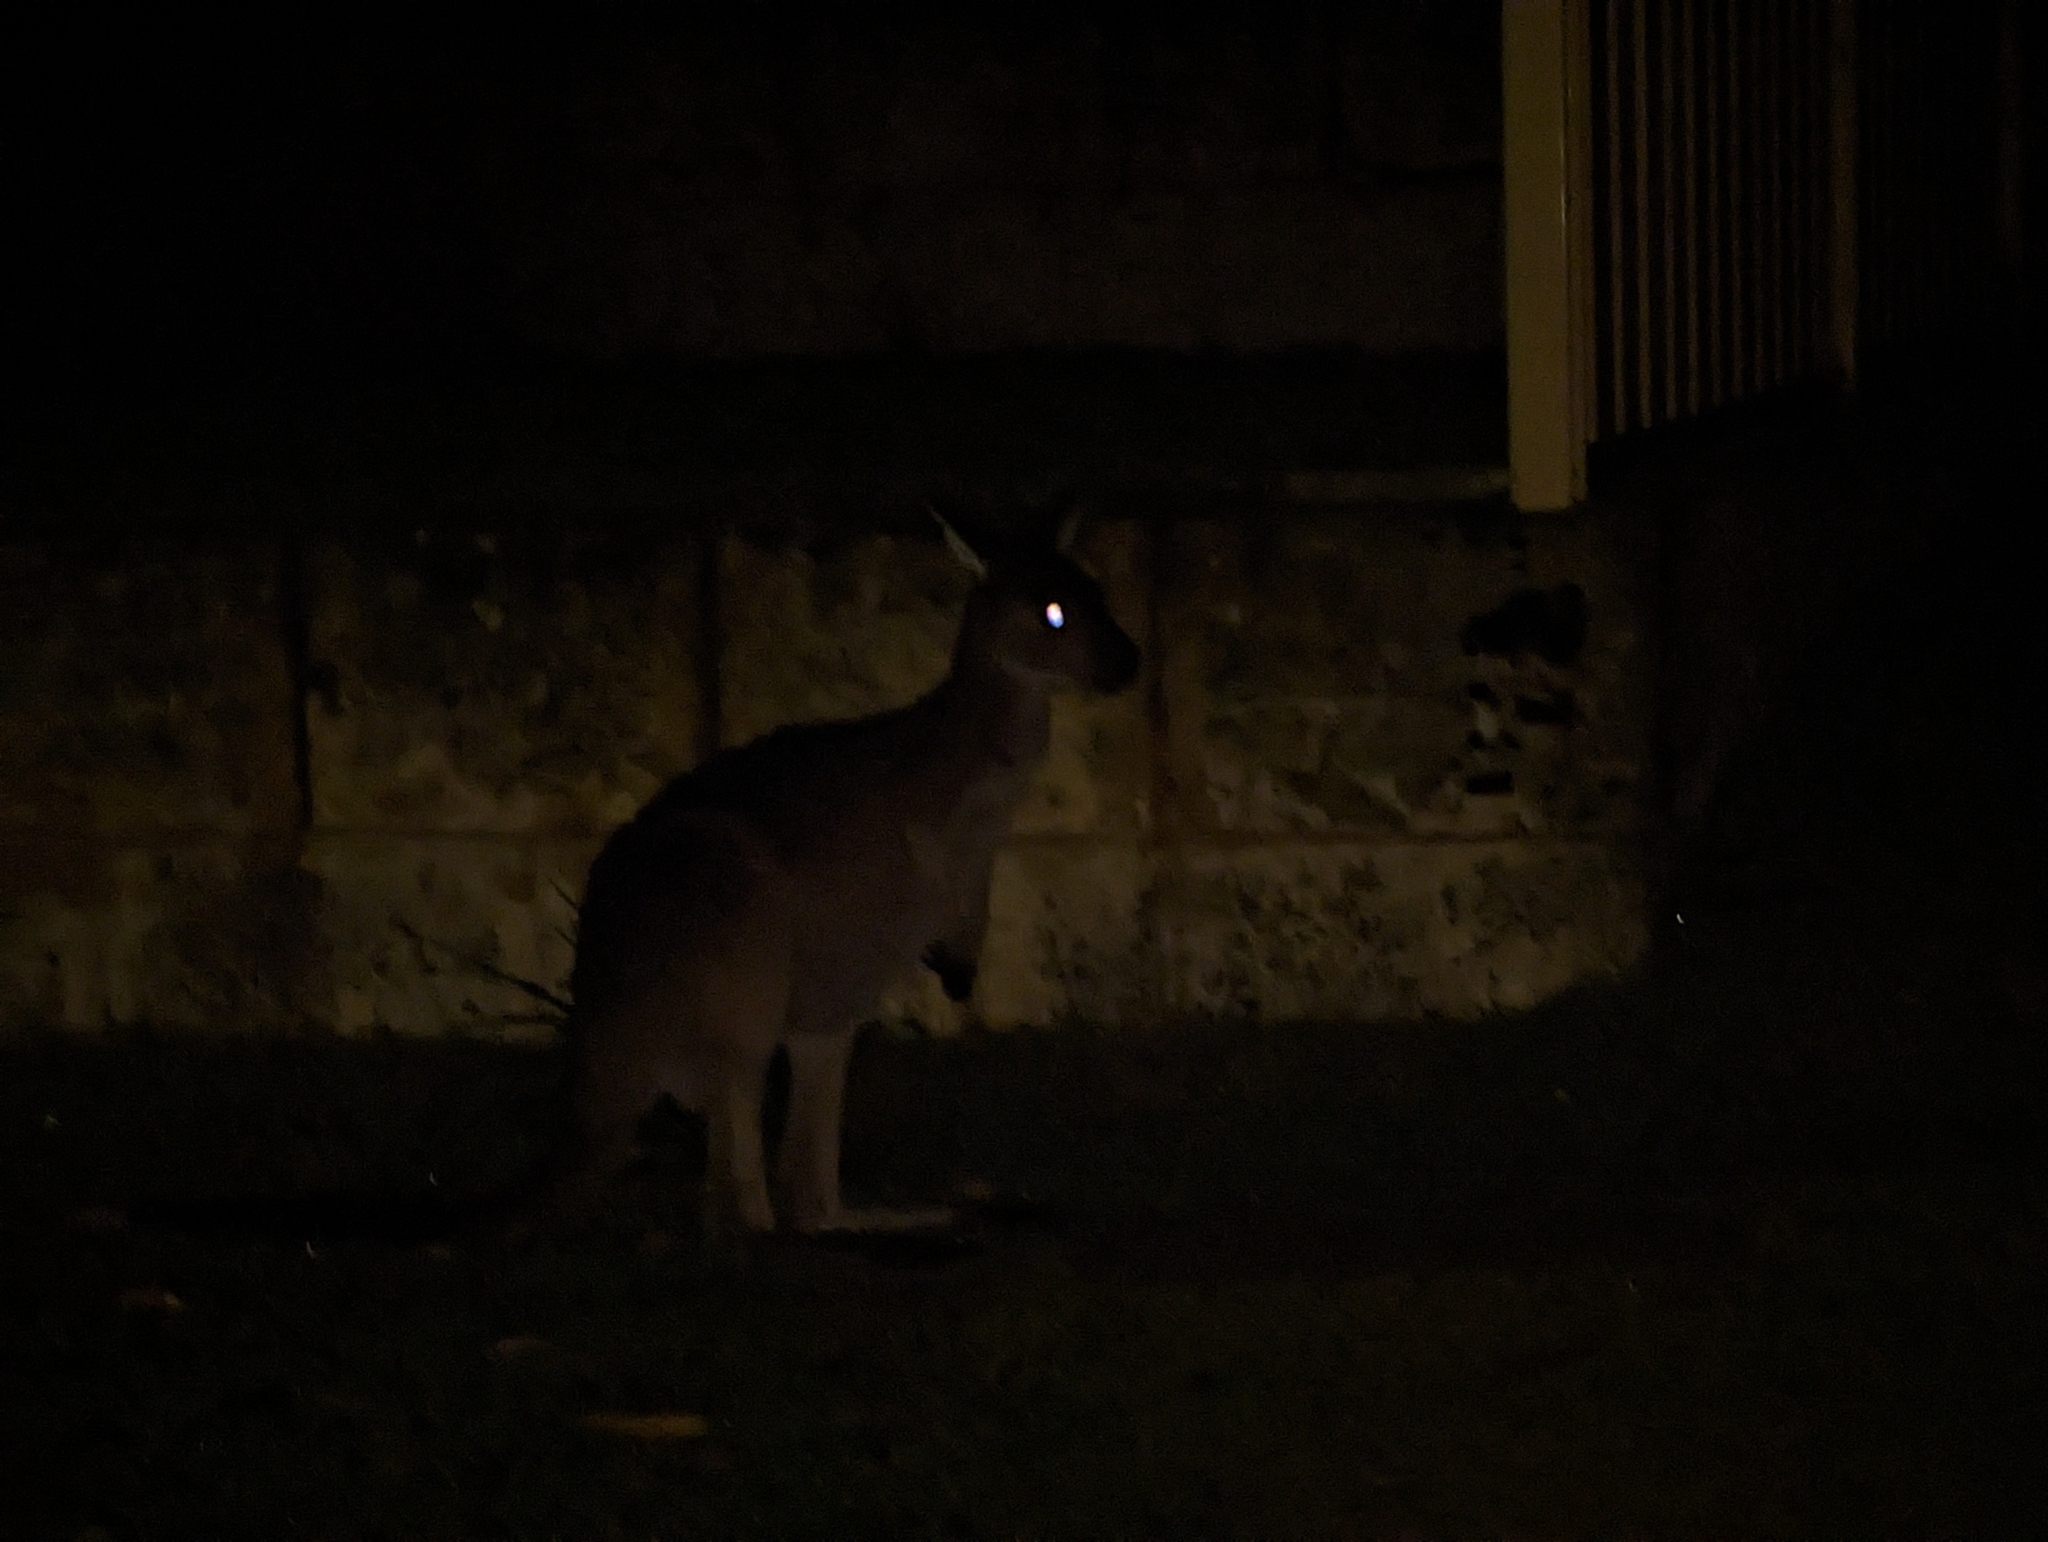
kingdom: Animalia
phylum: Chordata
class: Mammalia
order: Diprotodontia
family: Macropodidae
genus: Macropus
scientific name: Macropus fuliginosus
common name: Western grey kangaroo
